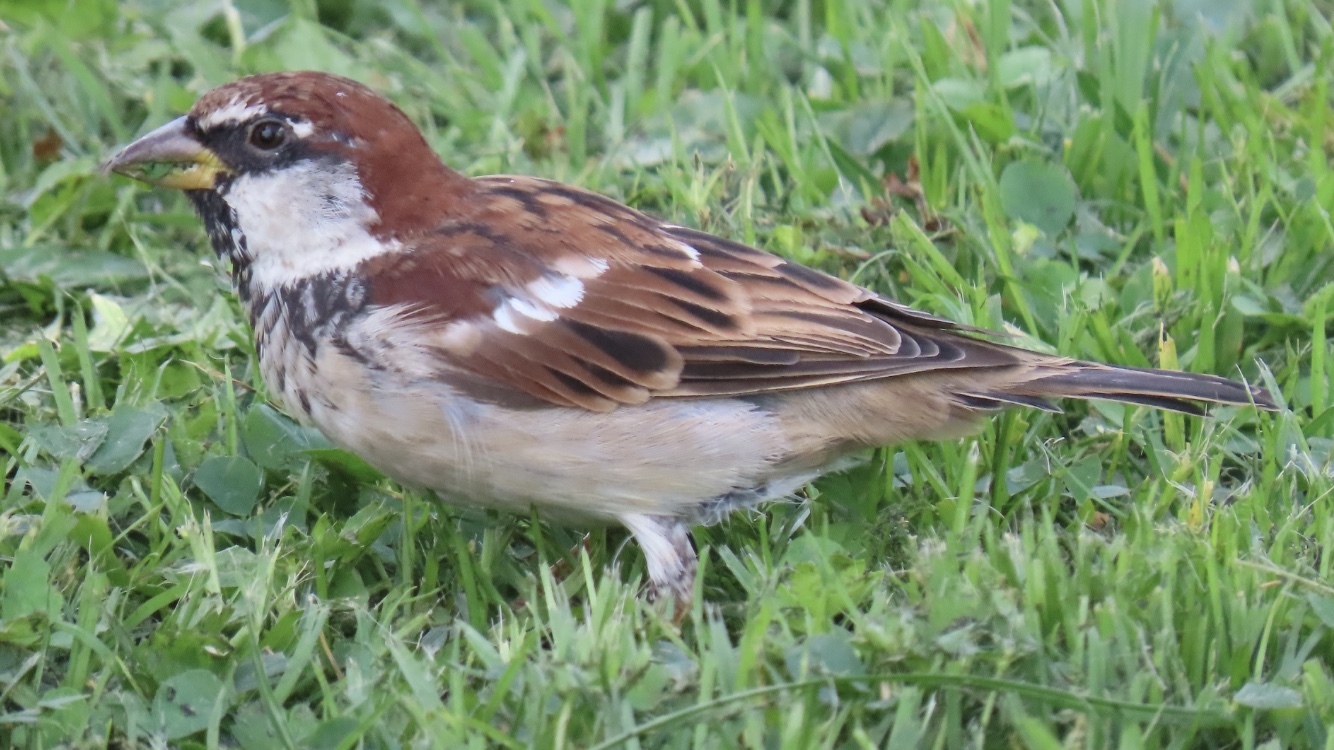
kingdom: Animalia
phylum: Chordata
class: Aves
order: Passeriformes
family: Passeridae
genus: Passer
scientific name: Passer italiae
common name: Italian sparrow
